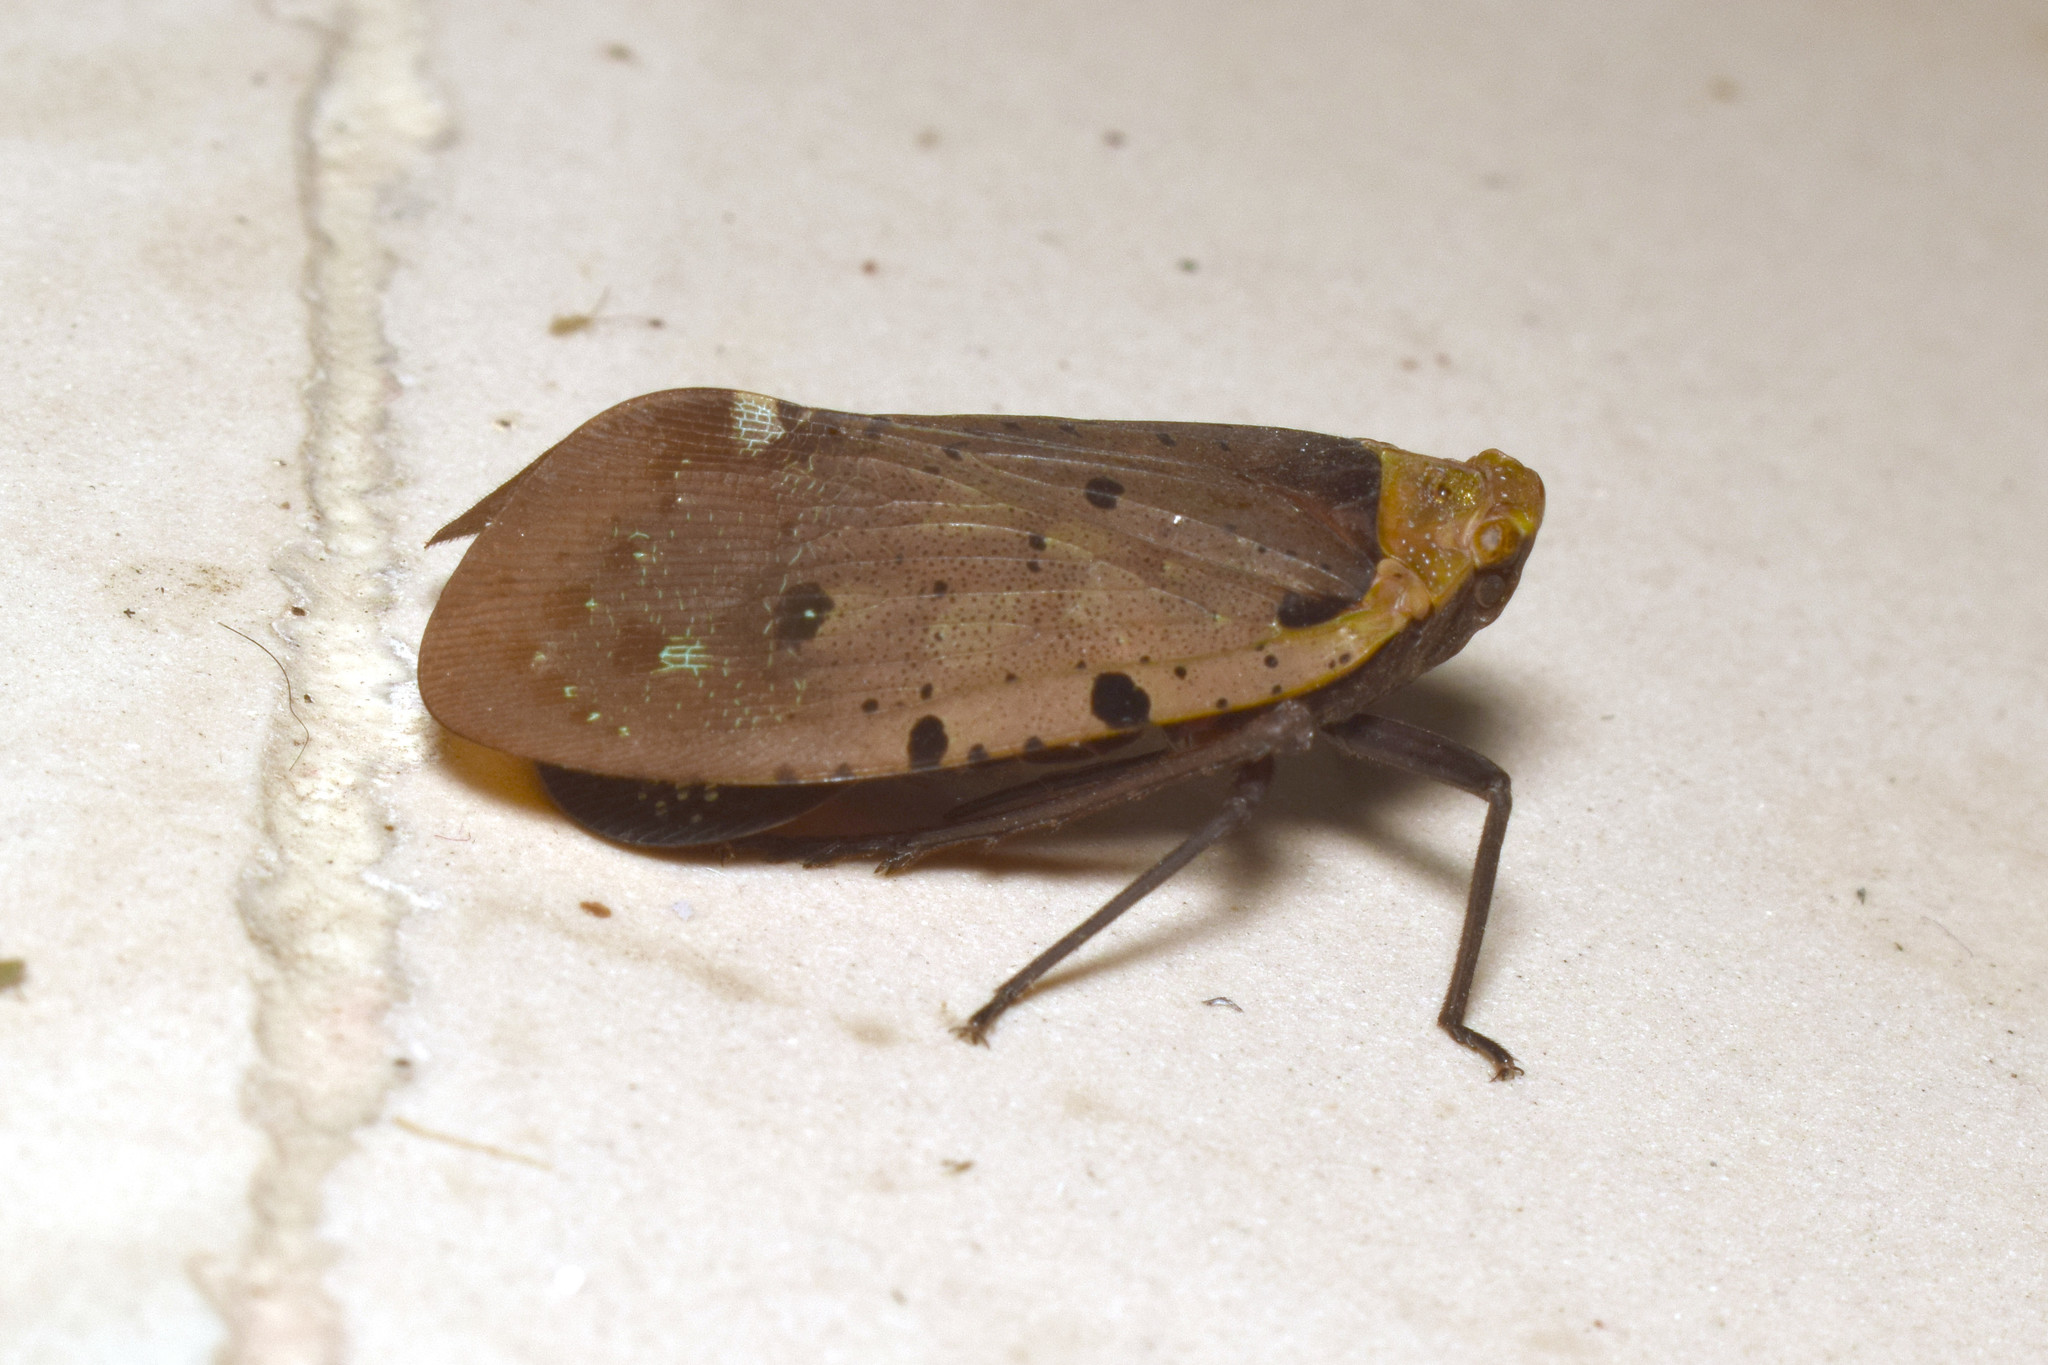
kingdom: Animalia
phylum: Arthropoda
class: Insecta
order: Hemiptera
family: Fulgoridae
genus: Penthicodes
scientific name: Penthicodes atomaria
